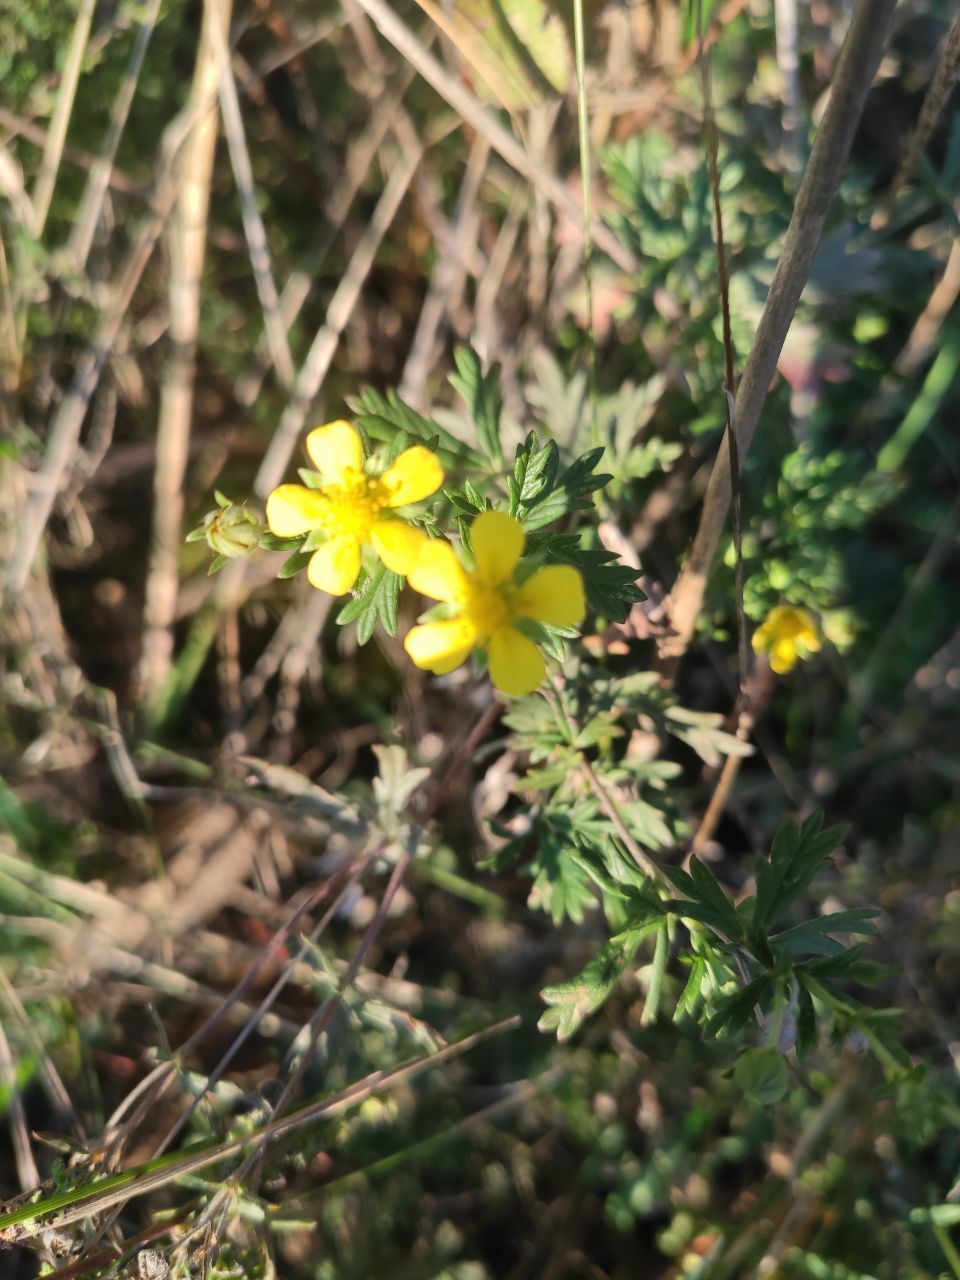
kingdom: Plantae
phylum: Tracheophyta
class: Magnoliopsida
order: Rosales
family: Rosaceae
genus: Potentilla
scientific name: Potentilla argentea
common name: Hoary cinquefoil
